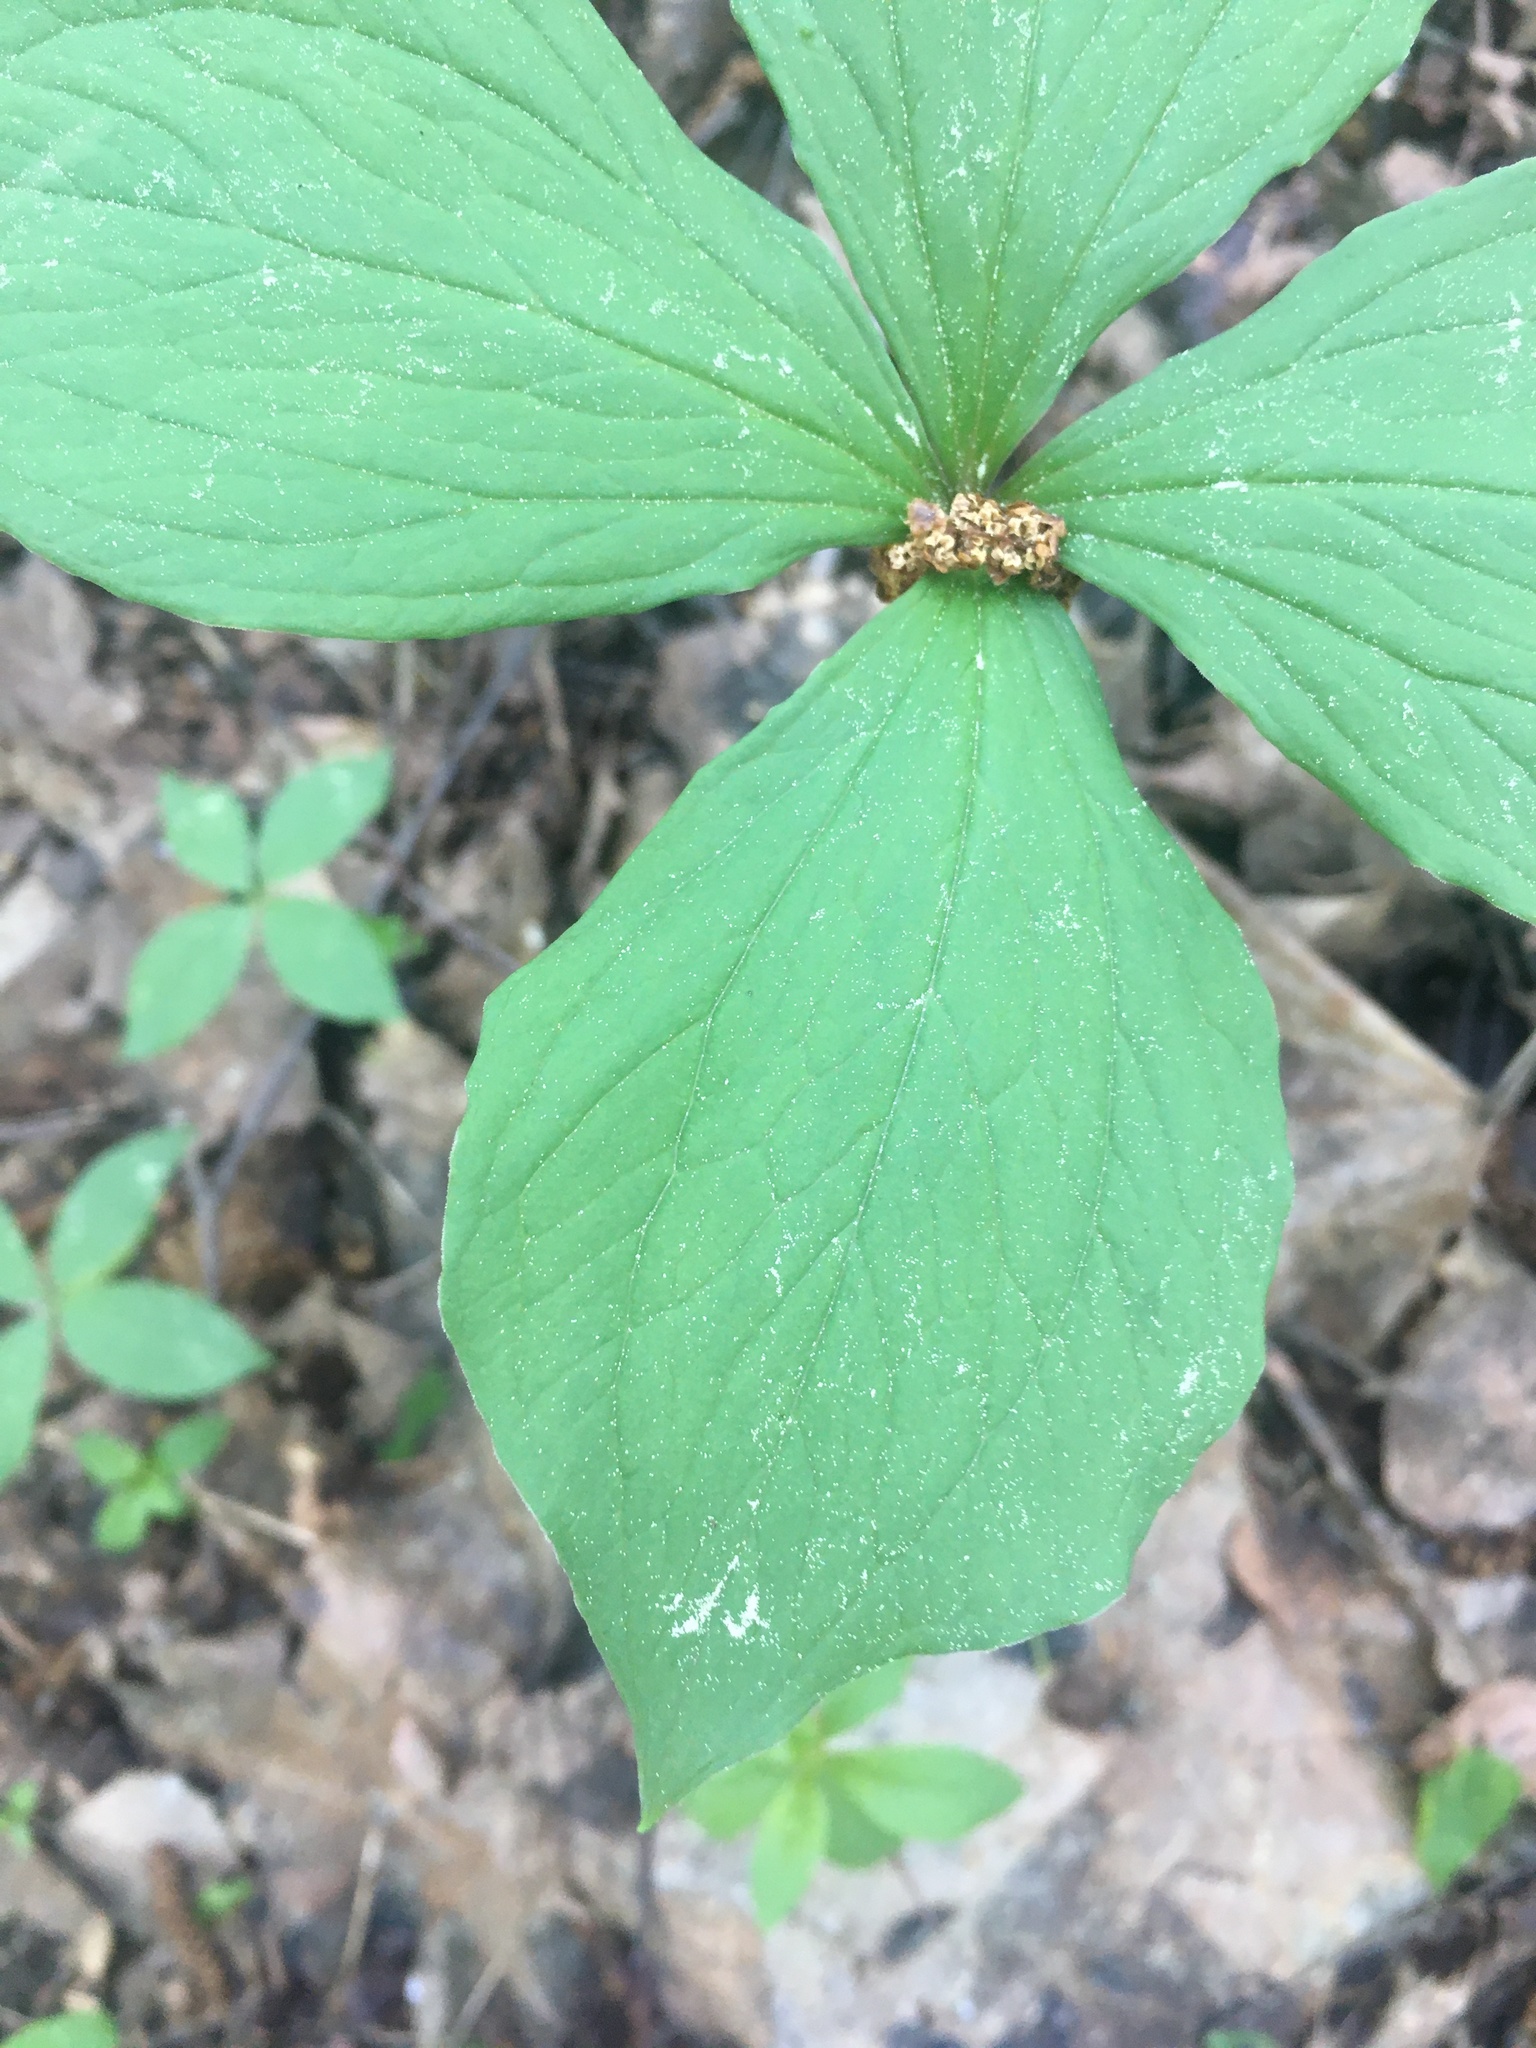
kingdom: Plantae
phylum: Tracheophyta
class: Liliopsida
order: Liliales
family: Melanthiaceae
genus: Paris
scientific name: Paris quadrifolia
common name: Herb-paris
